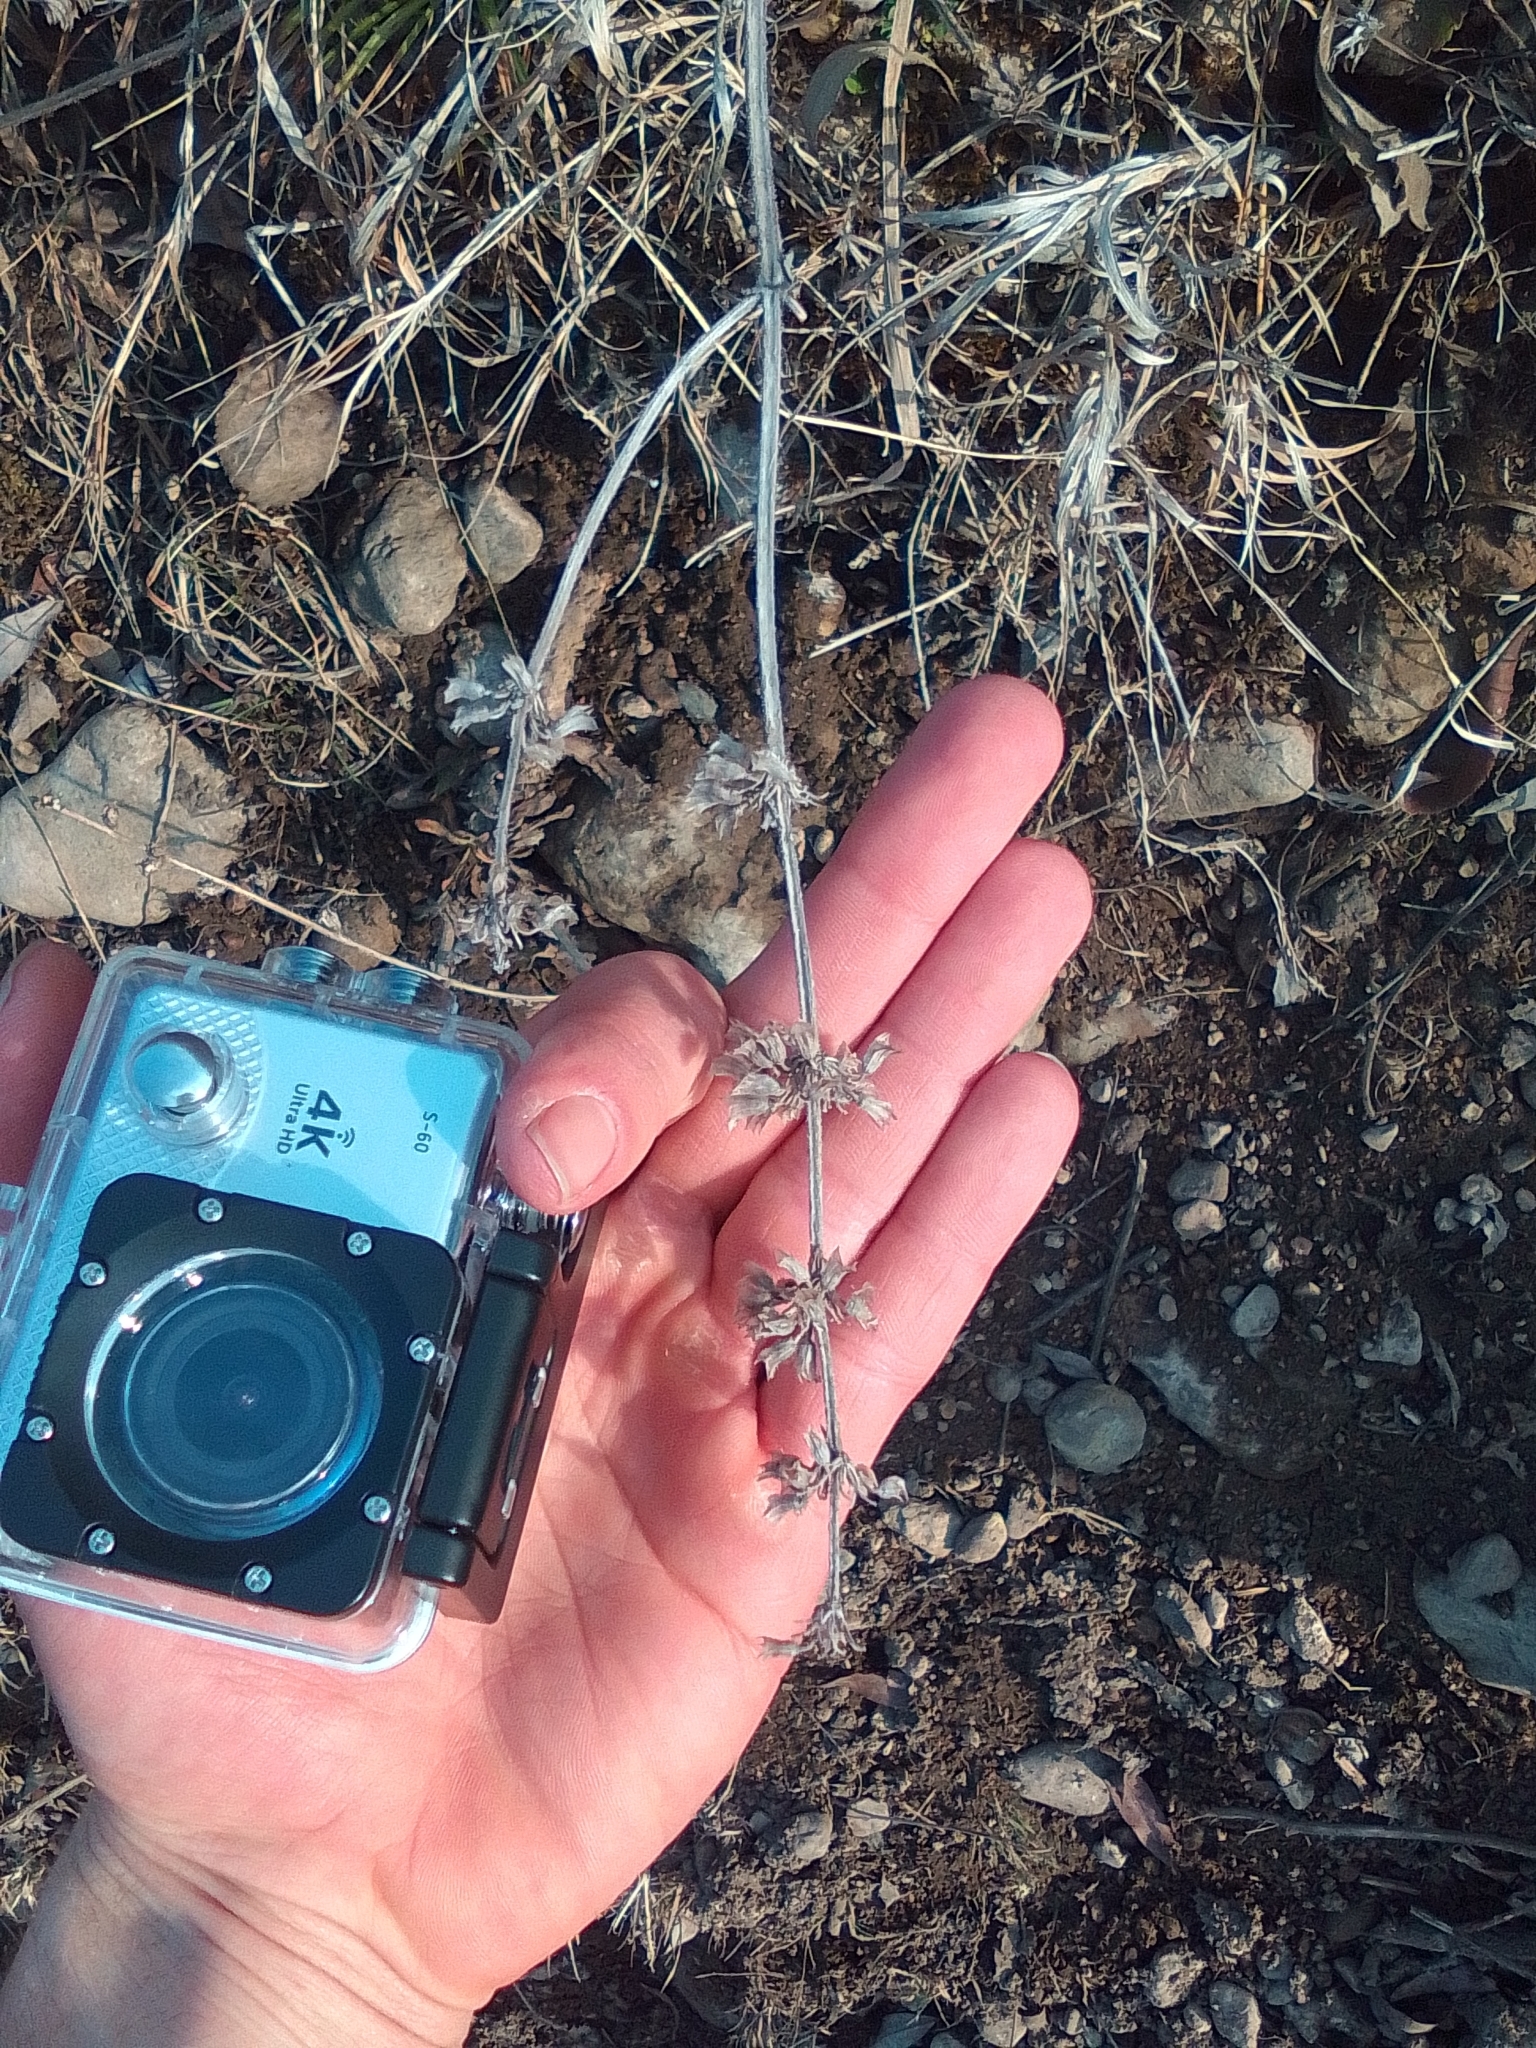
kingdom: Plantae
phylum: Tracheophyta
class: Magnoliopsida
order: Lamiales
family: Lamiaceae
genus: Salvia
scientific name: Salvia verticillata
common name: Whorled clary
